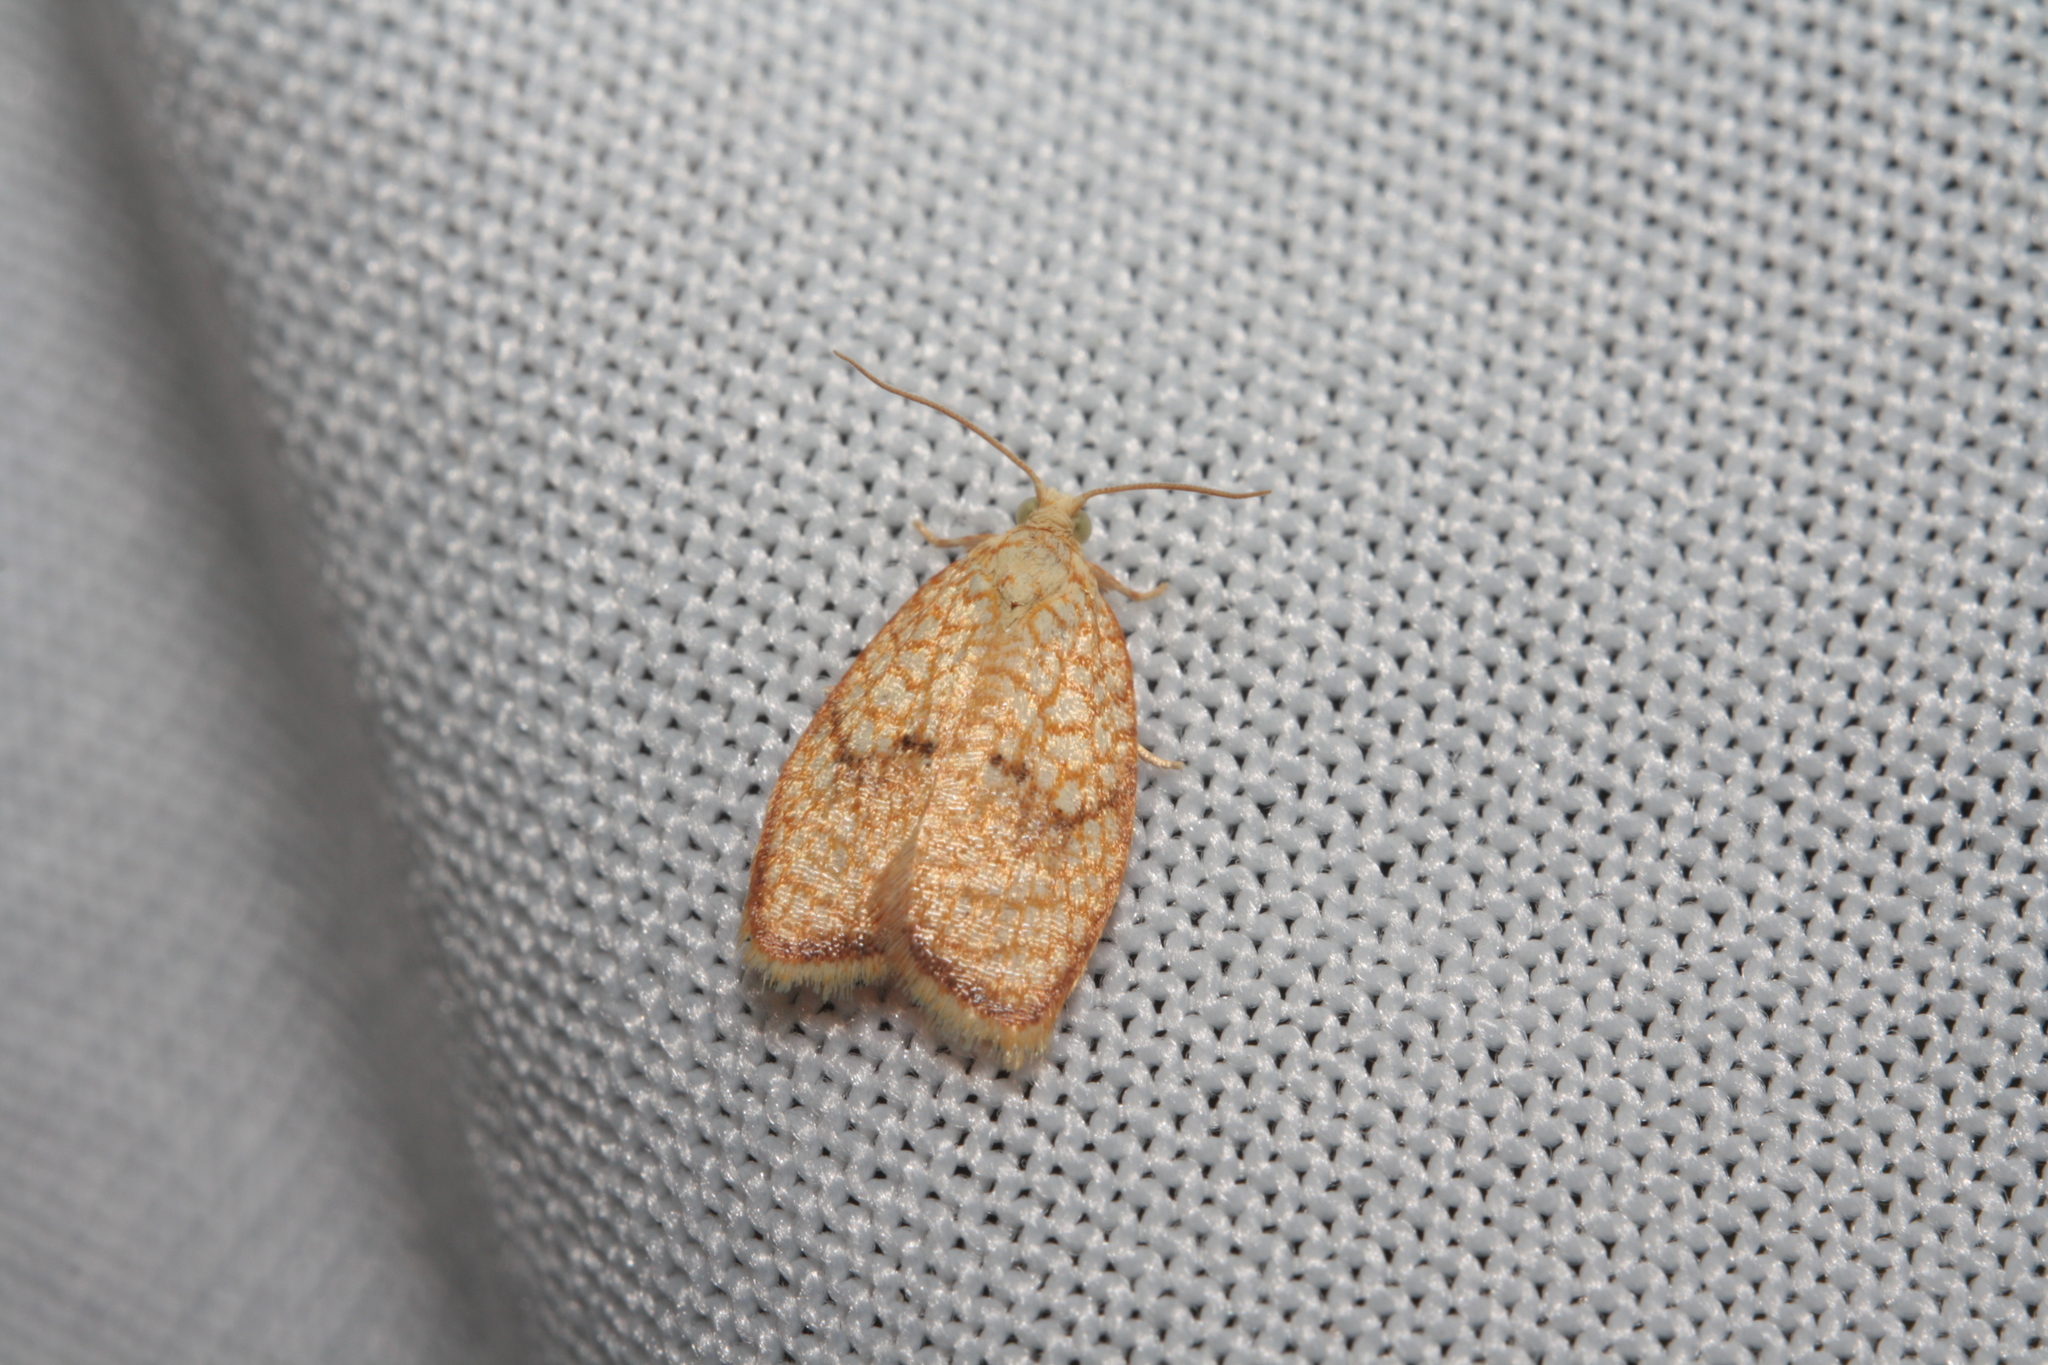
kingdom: Animalia
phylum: Arthropoda
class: Insecta
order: Lepidoptera
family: Tortricidae
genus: Acleris
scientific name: Acleris forsskaleana
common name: Maple button
